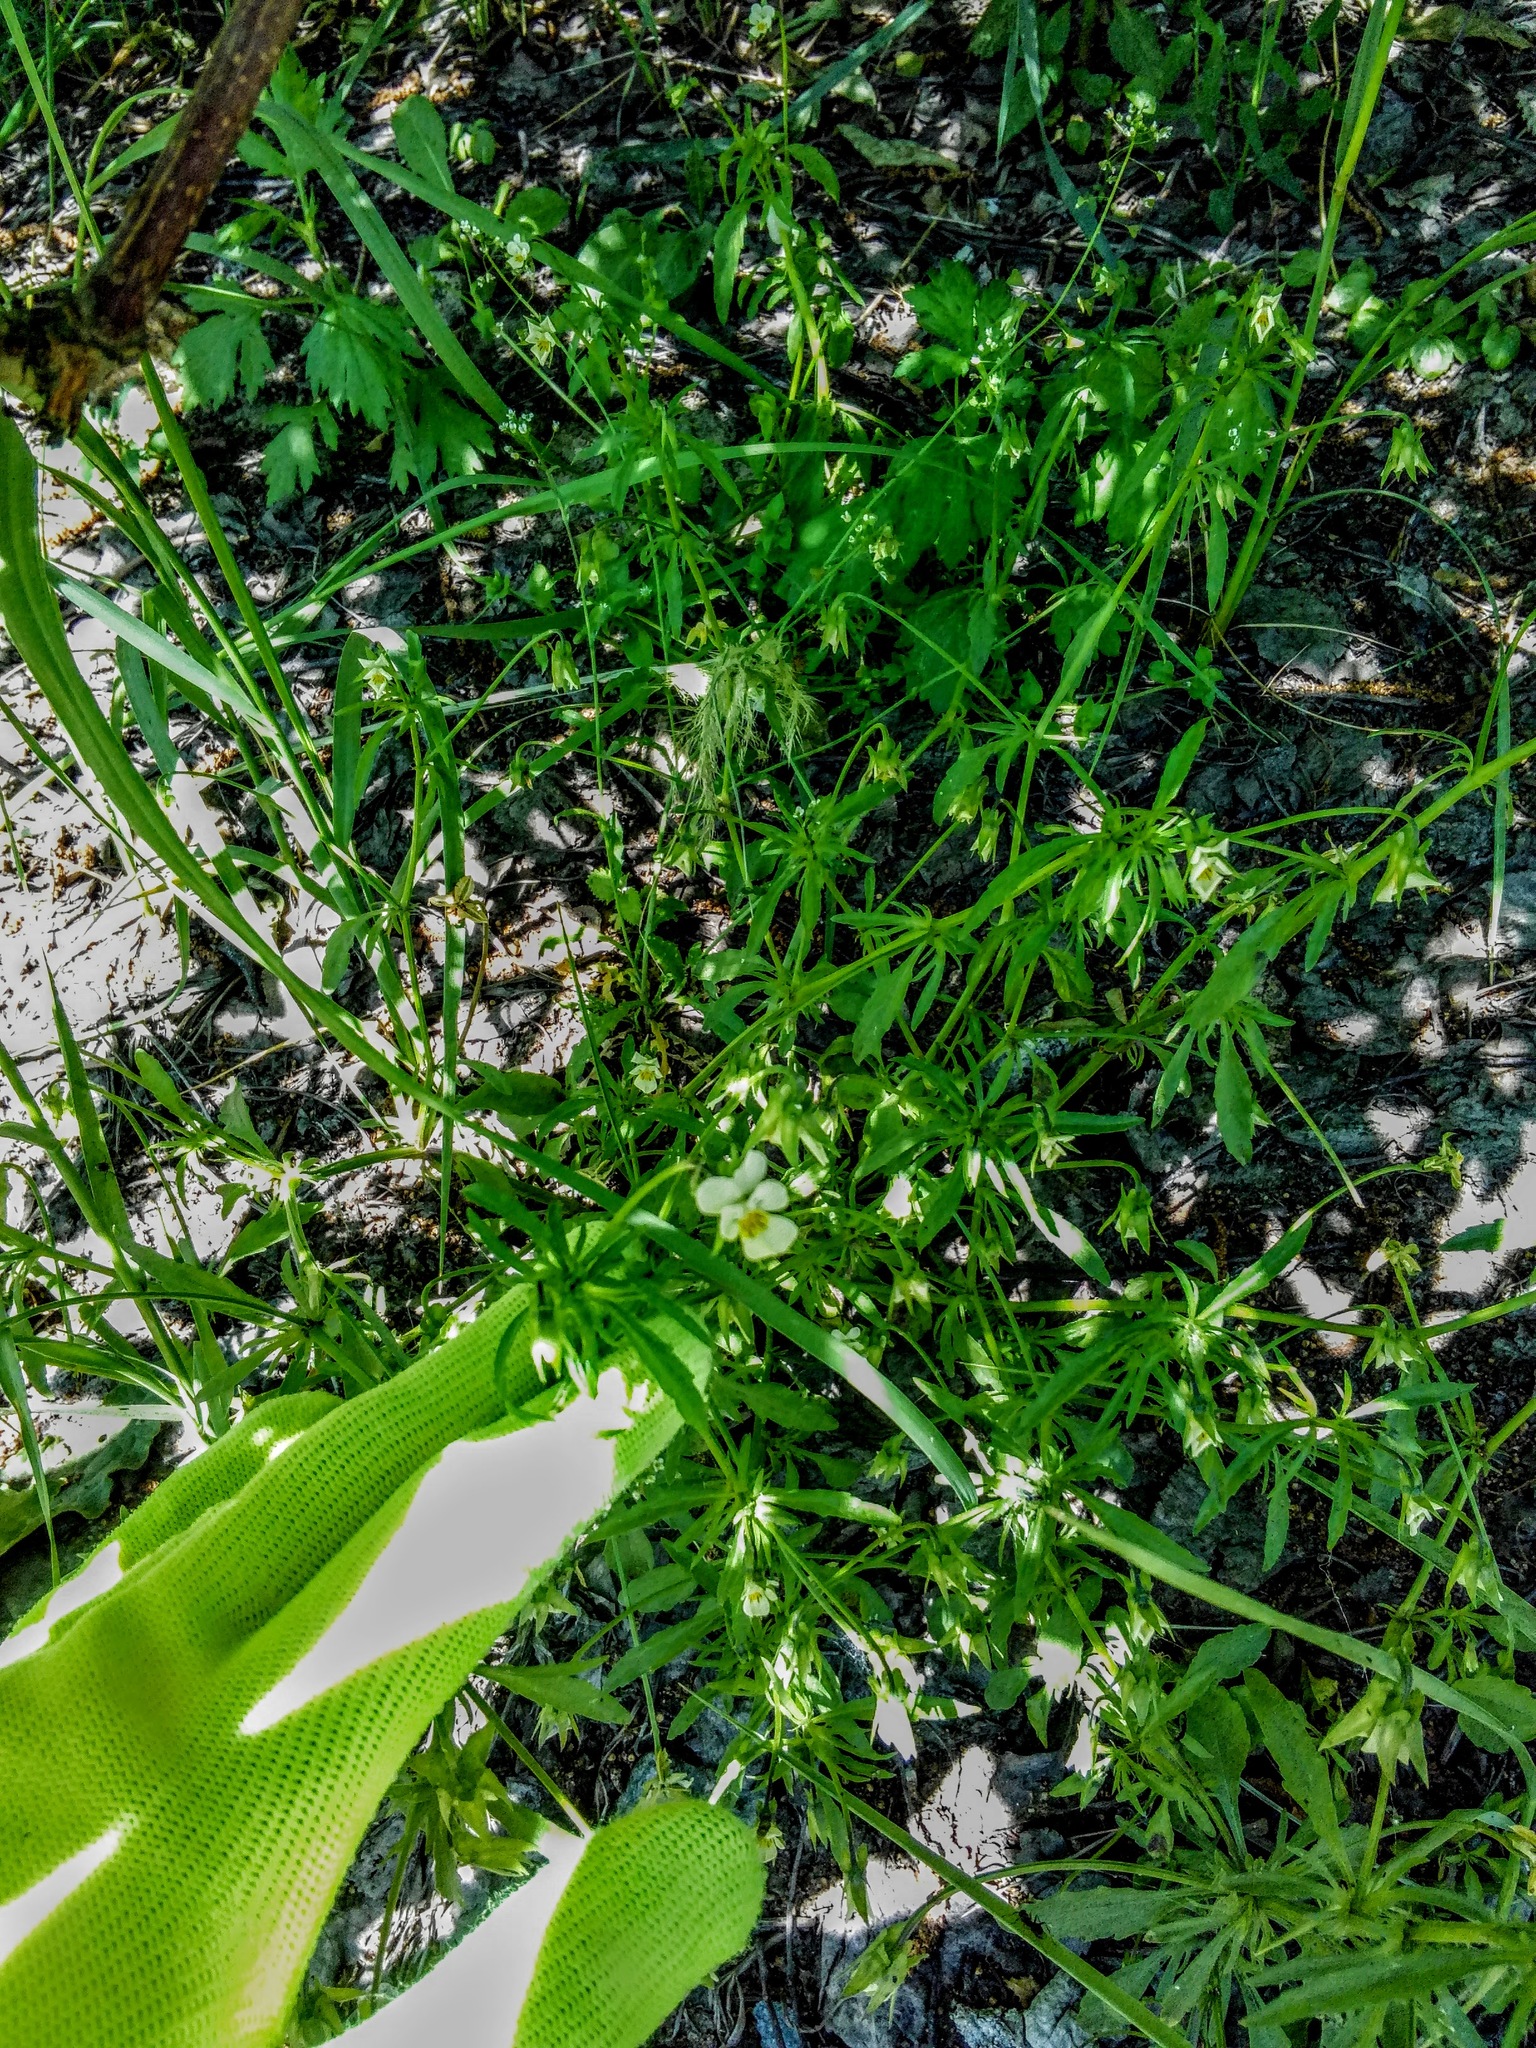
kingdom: Plantae
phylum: Tracheophyta
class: Magnoliopsida
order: Malpighiales
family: Violaceae
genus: Viola
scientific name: Viola arvensis
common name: Field pansy
